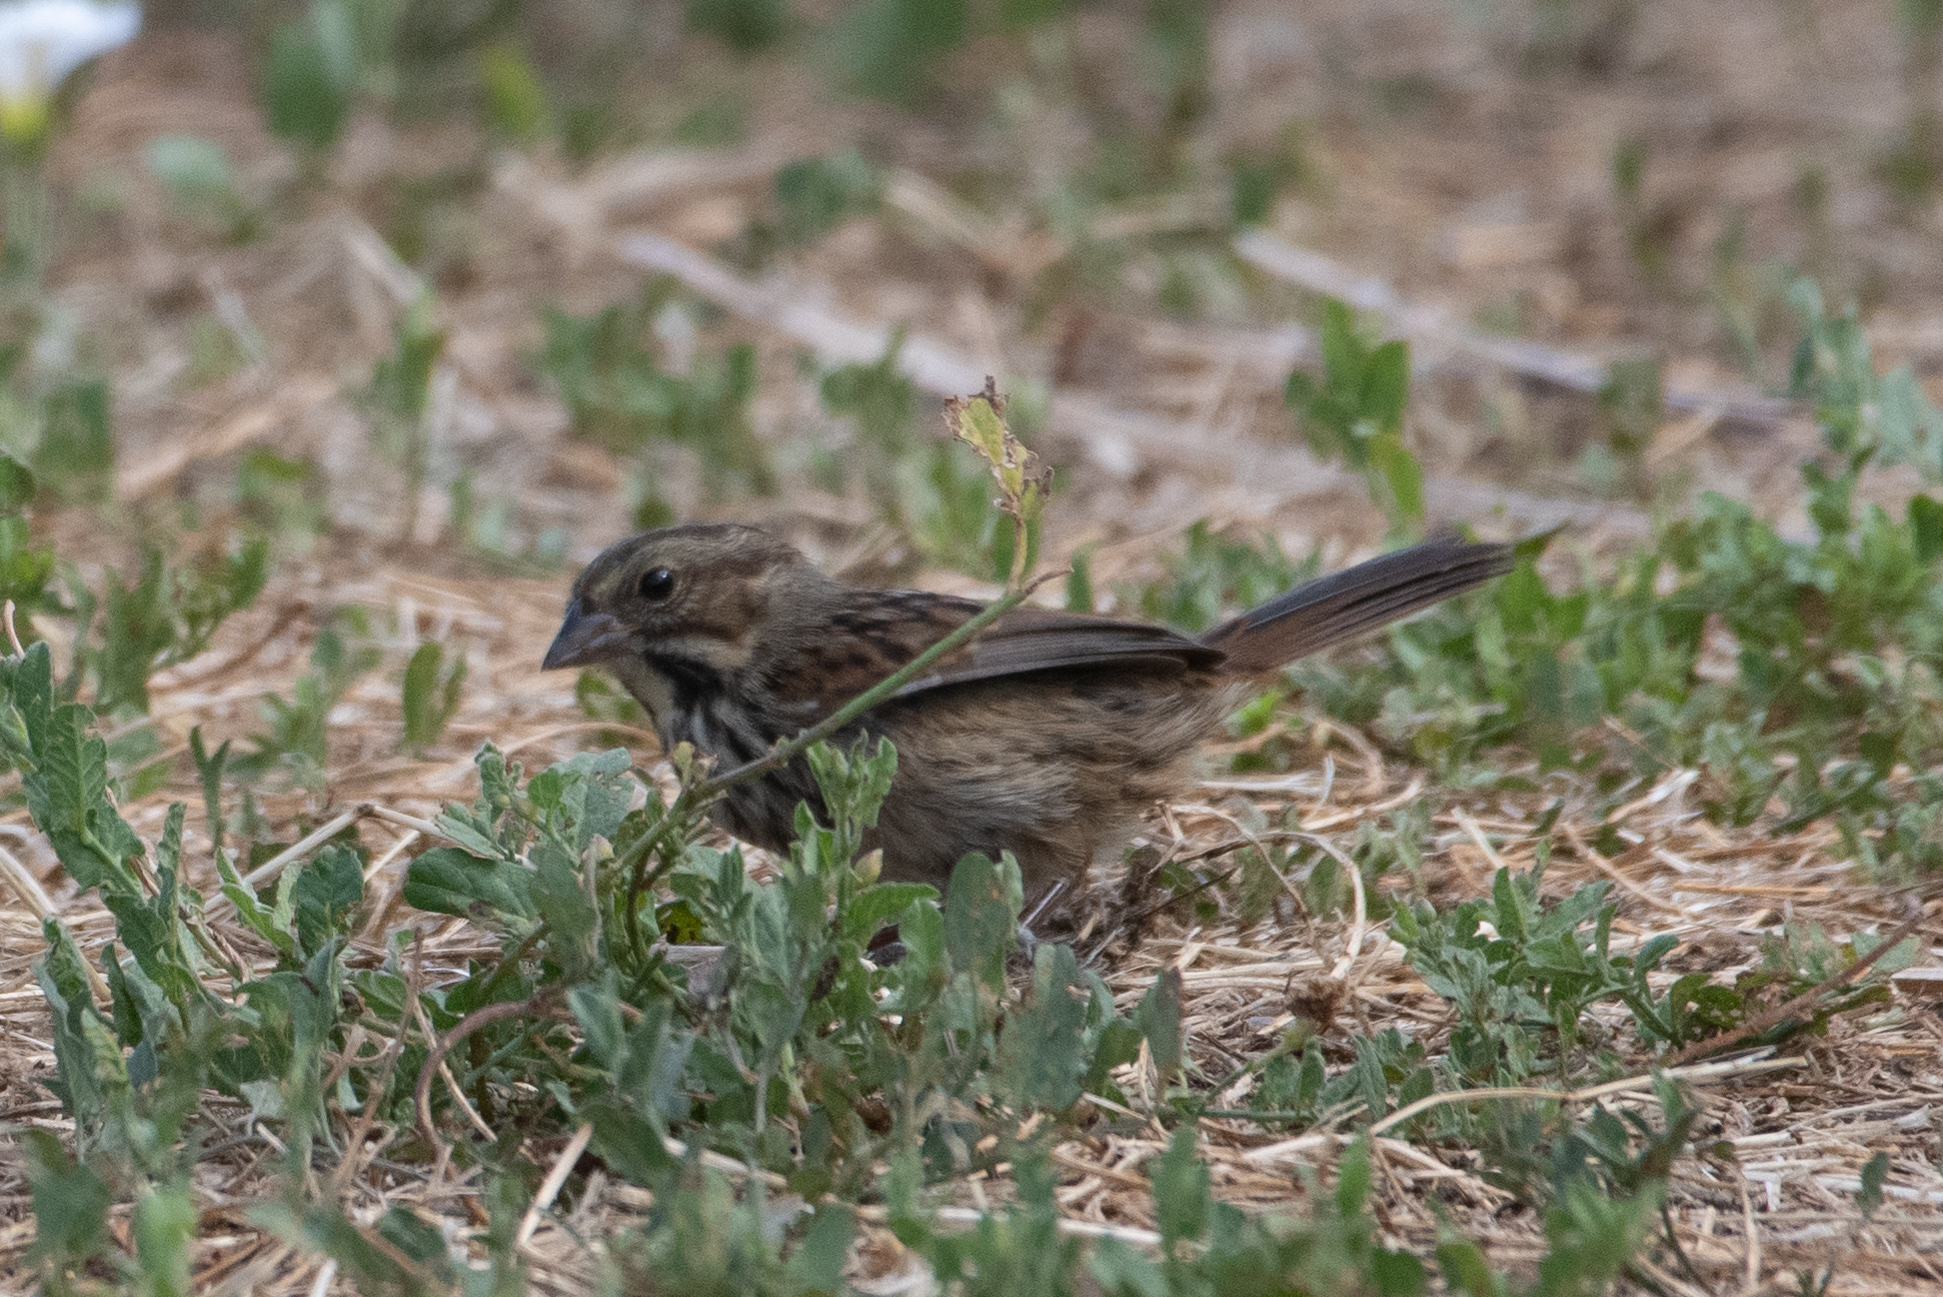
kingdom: Animalia
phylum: Chordata
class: Aves
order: Passeriformes
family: Passerellidae
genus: Melospiza
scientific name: Melospiza melodia
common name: Song sparrow
